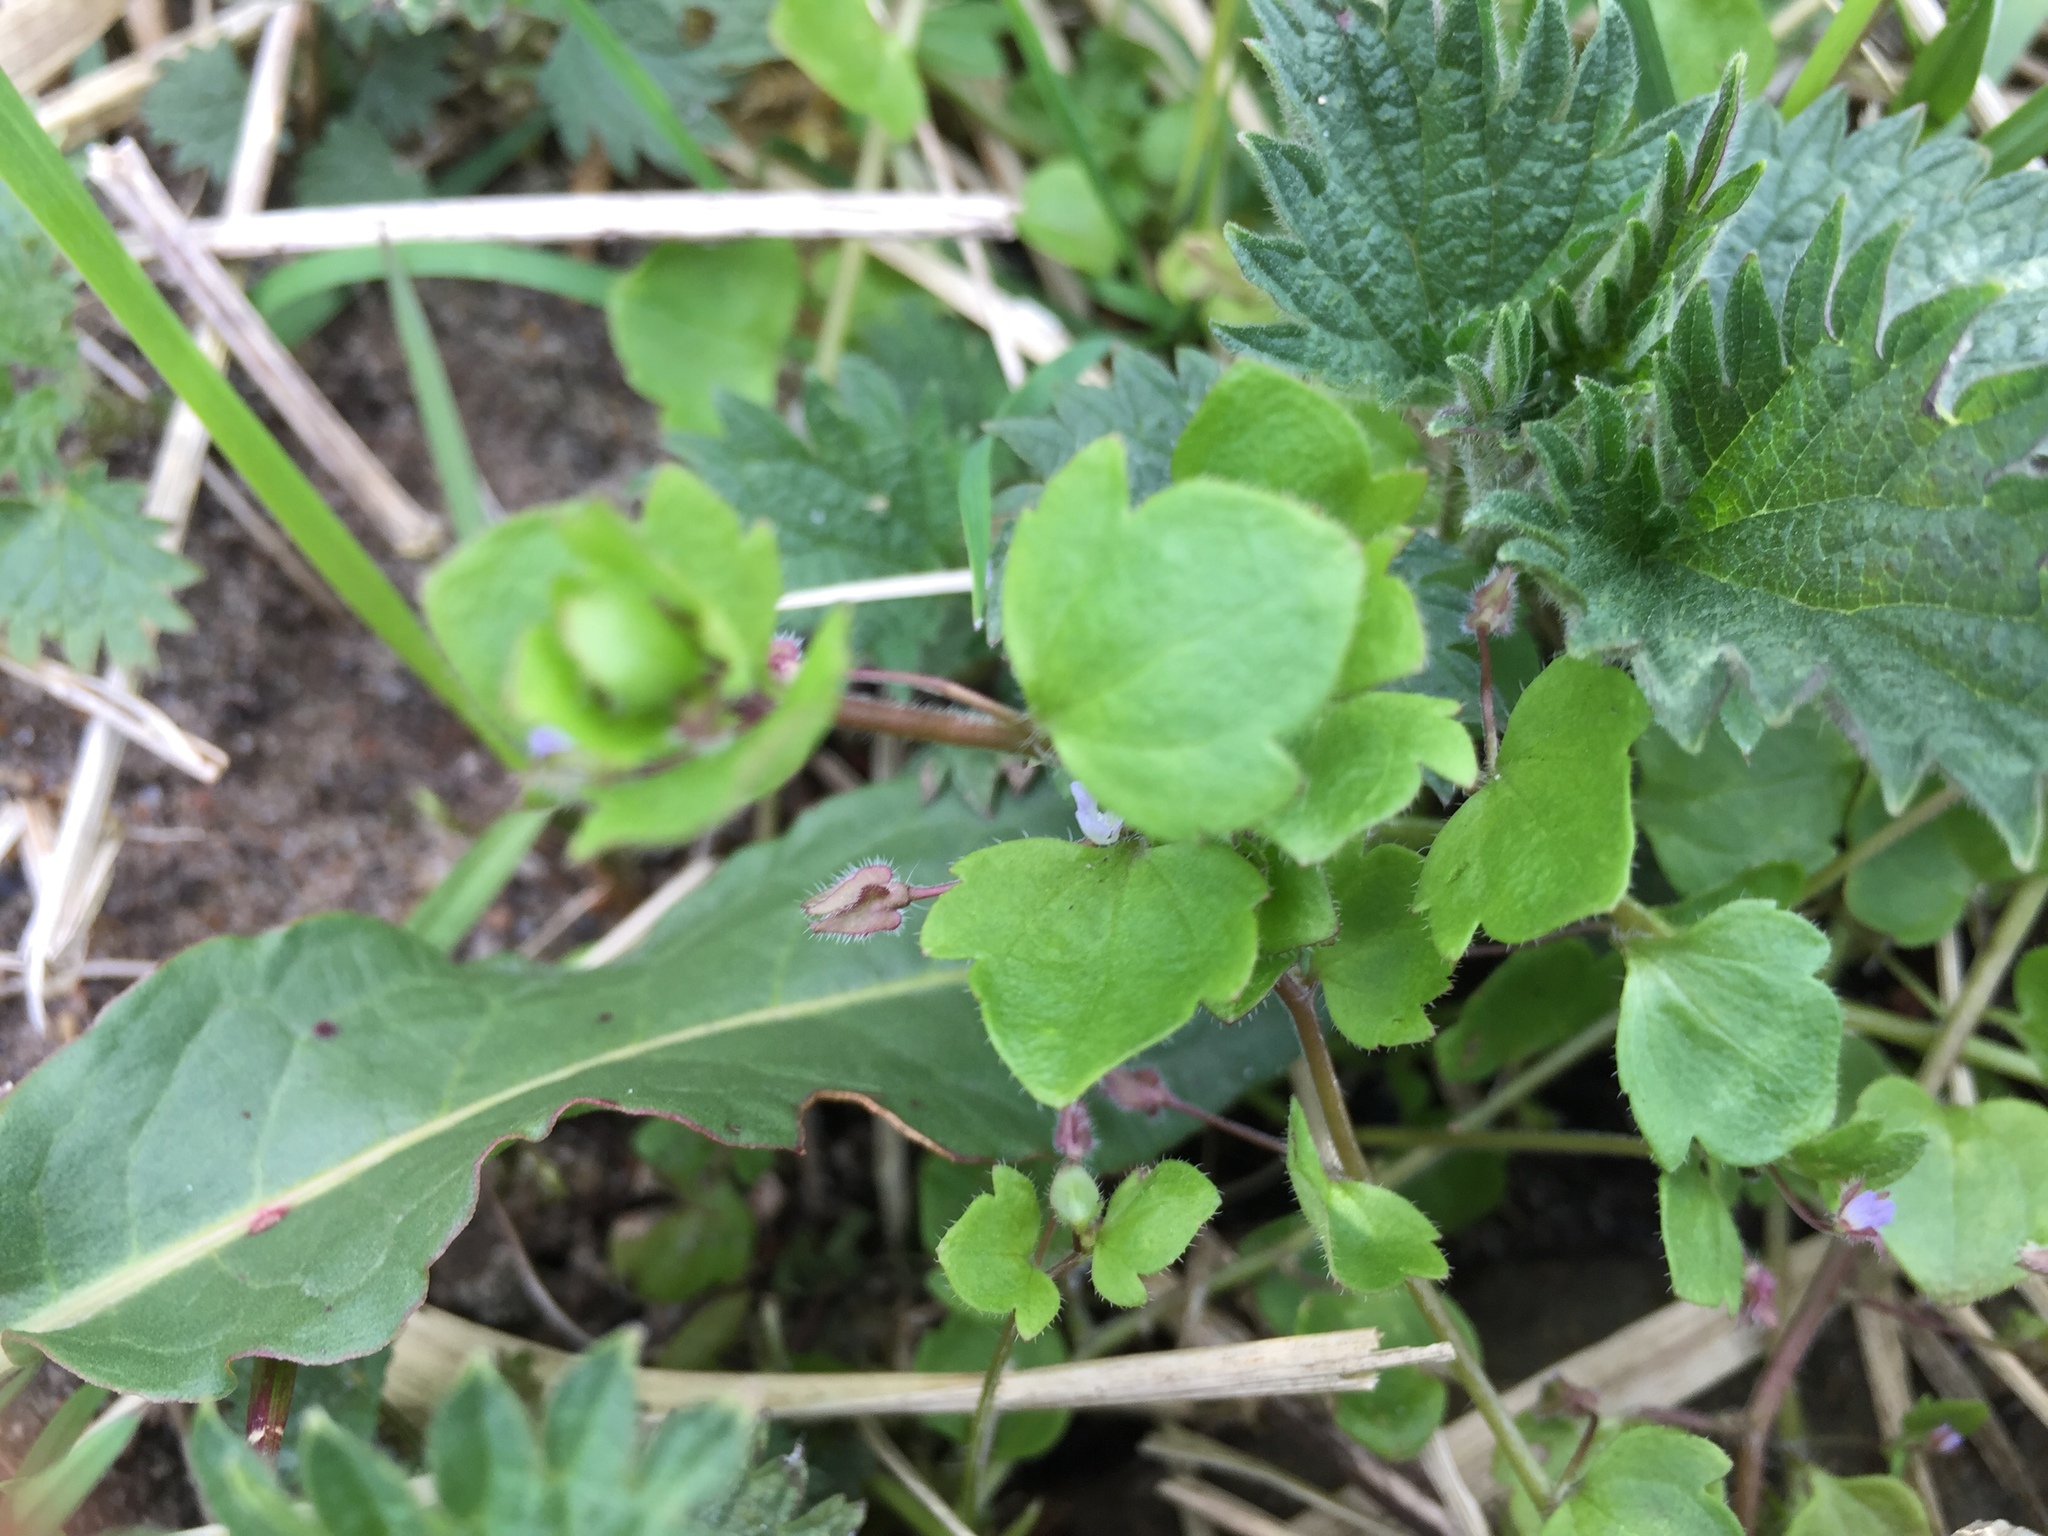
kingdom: Plantae
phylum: Tracheophyta
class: Magnoliopsida
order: Lamiales
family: Plantaginaceae
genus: Veronica
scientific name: Veronica hederifolia
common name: Ivy-leaved speedwell
